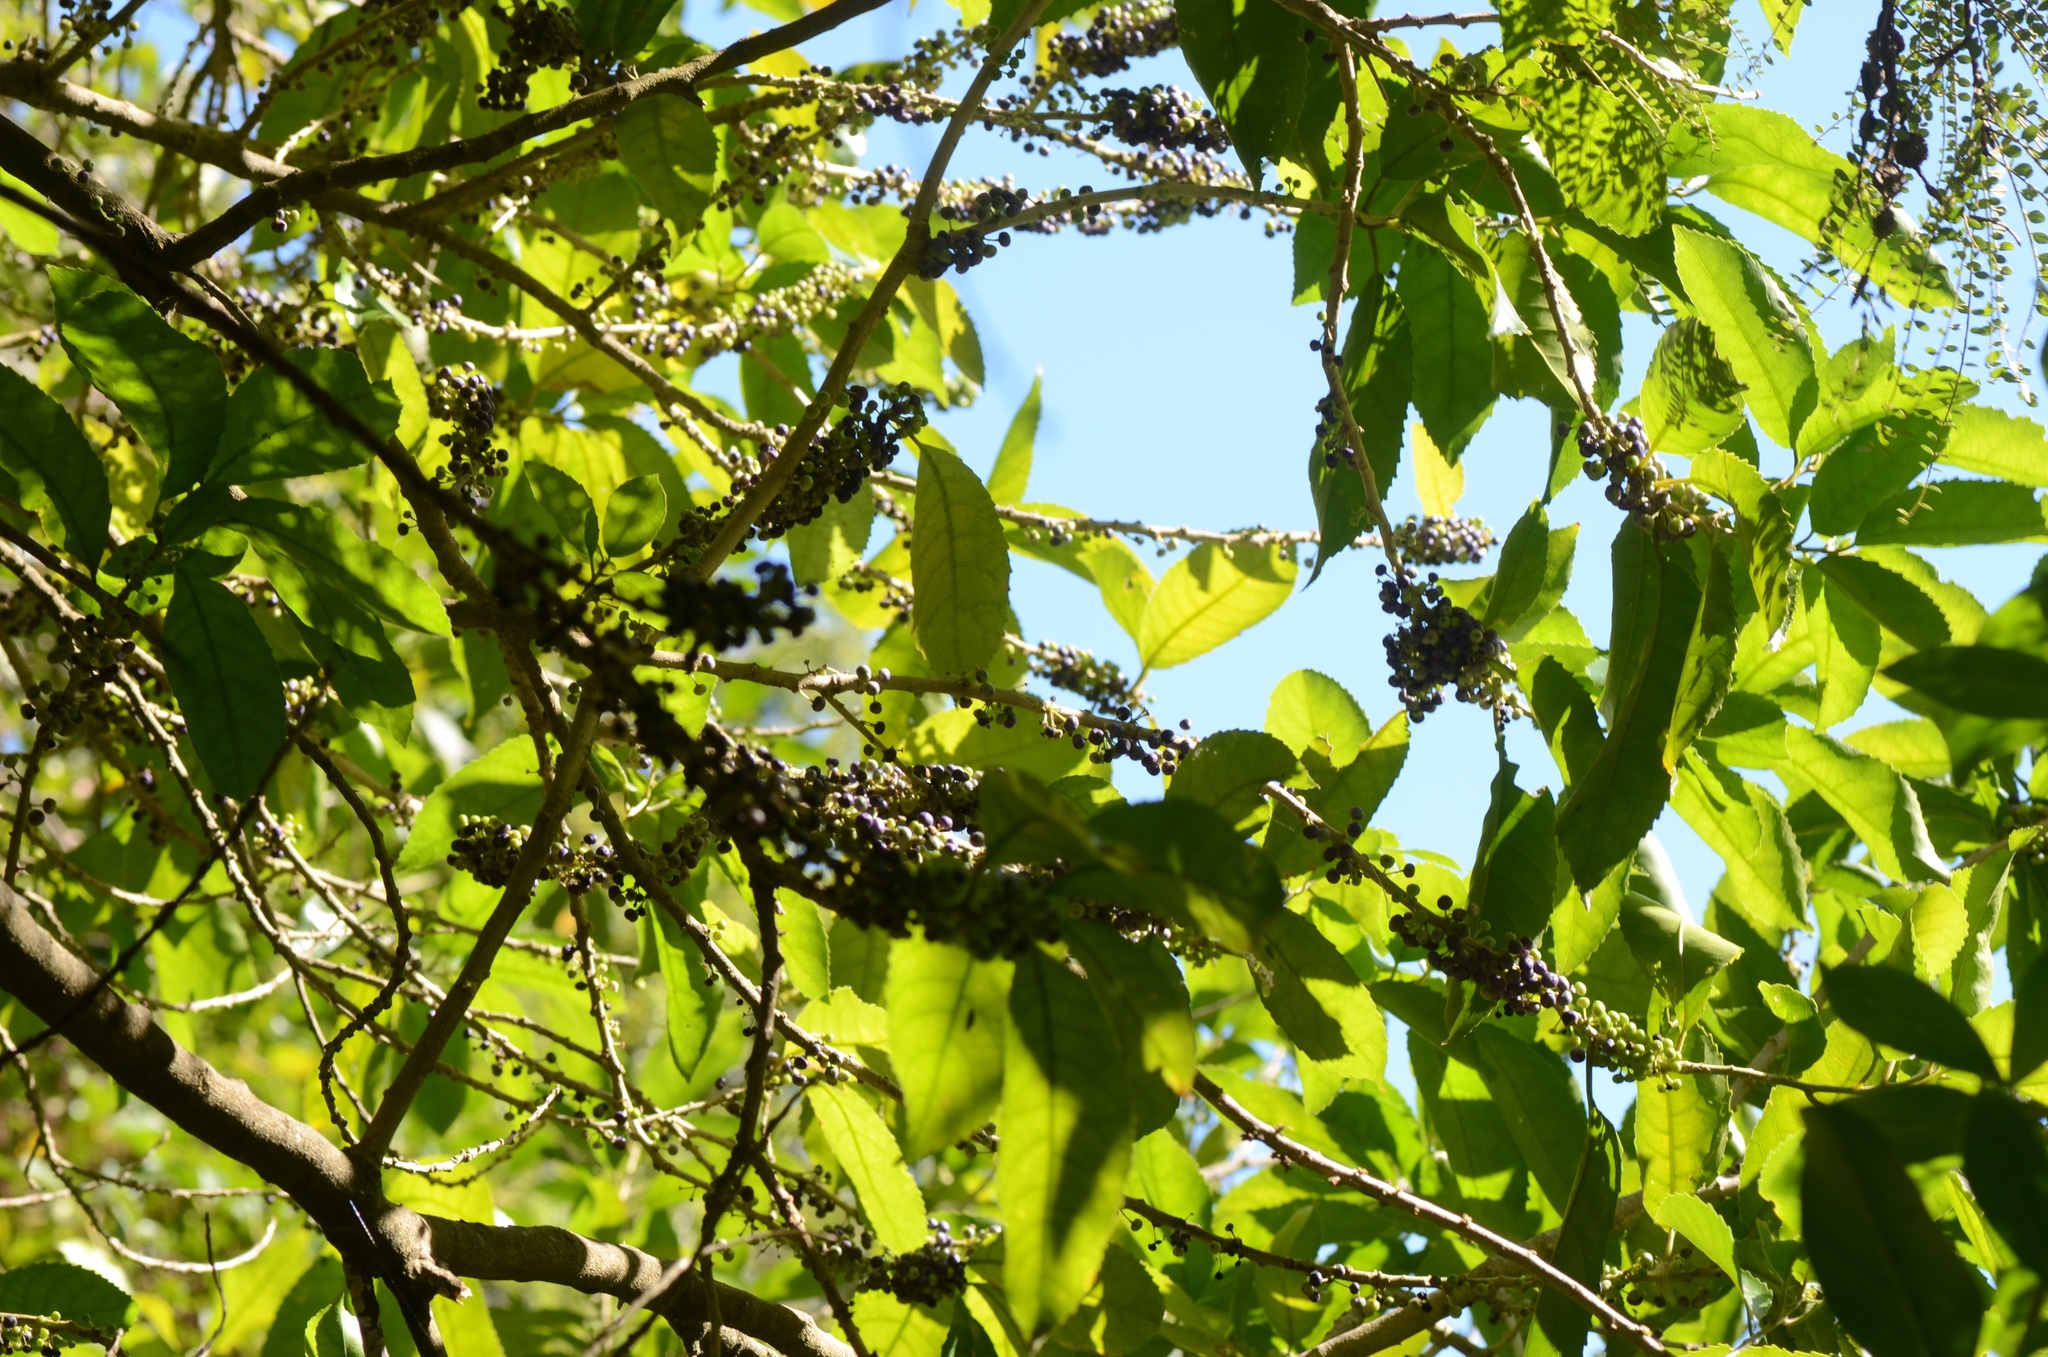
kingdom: Plantae
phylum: Tracheophyta
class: Magnoliopsida
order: Malpighiales
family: Violaceae
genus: Melicytus
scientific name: Melicytus ramiflorus
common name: Mahoe
